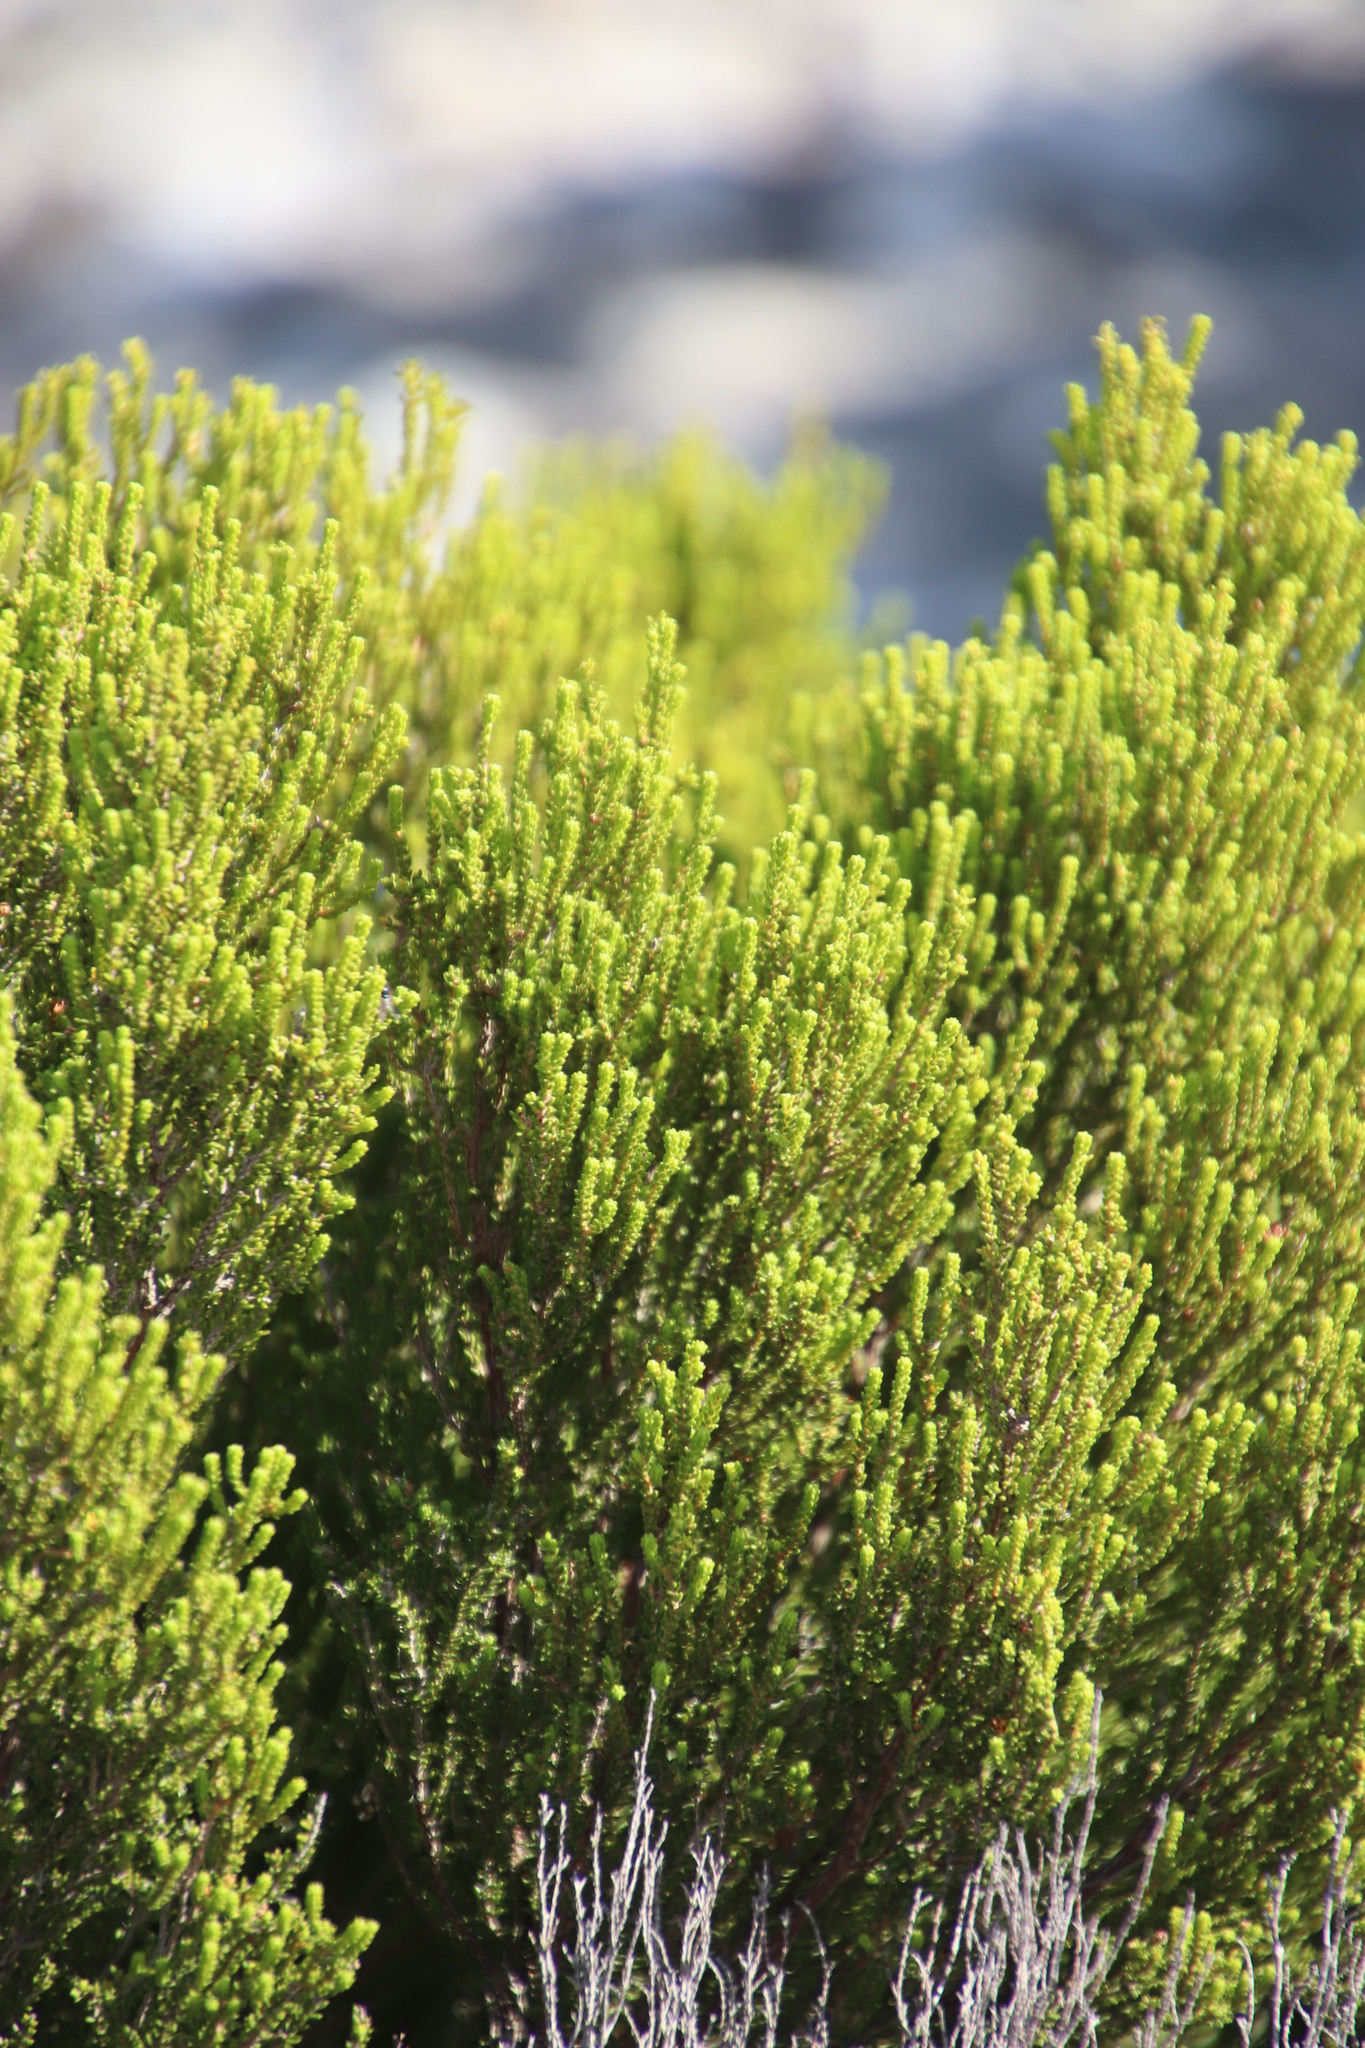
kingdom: Plantae
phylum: Tracheophyta
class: Magnoliopsida
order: Ericales
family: Ericaceae
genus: Erica
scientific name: Erica tristis
